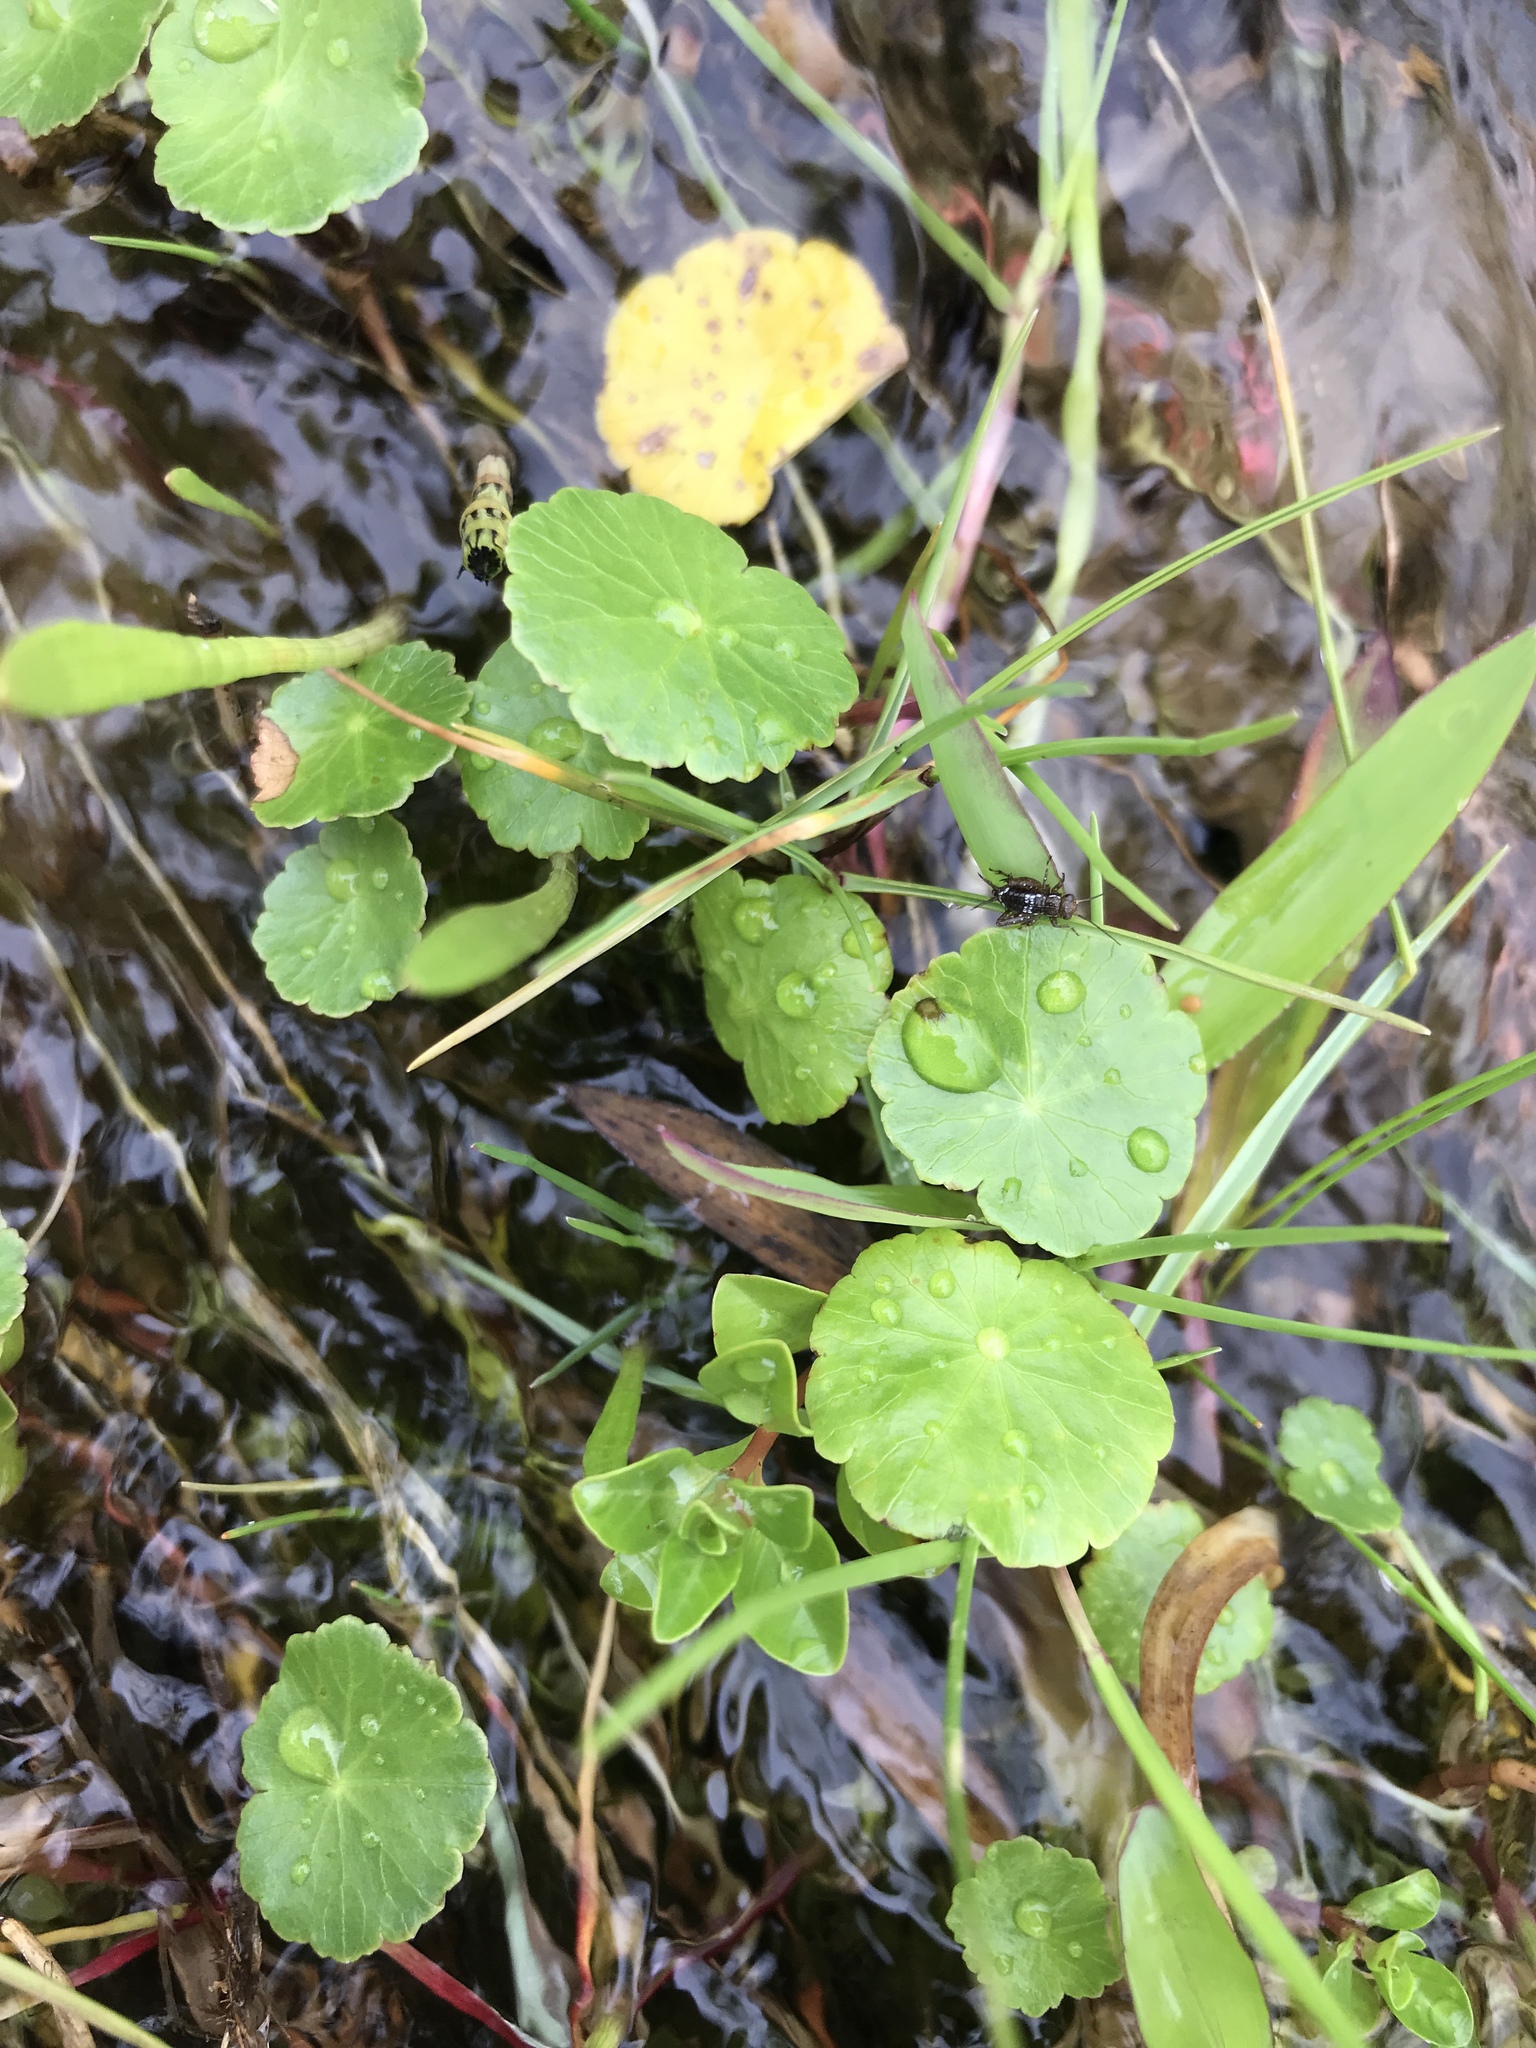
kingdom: Plantae
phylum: Tracheophyta
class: Magnoliopsida
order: Apiales
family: Araliaceae
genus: Hydrocotyle
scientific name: Hydrocotyle bonariensis
